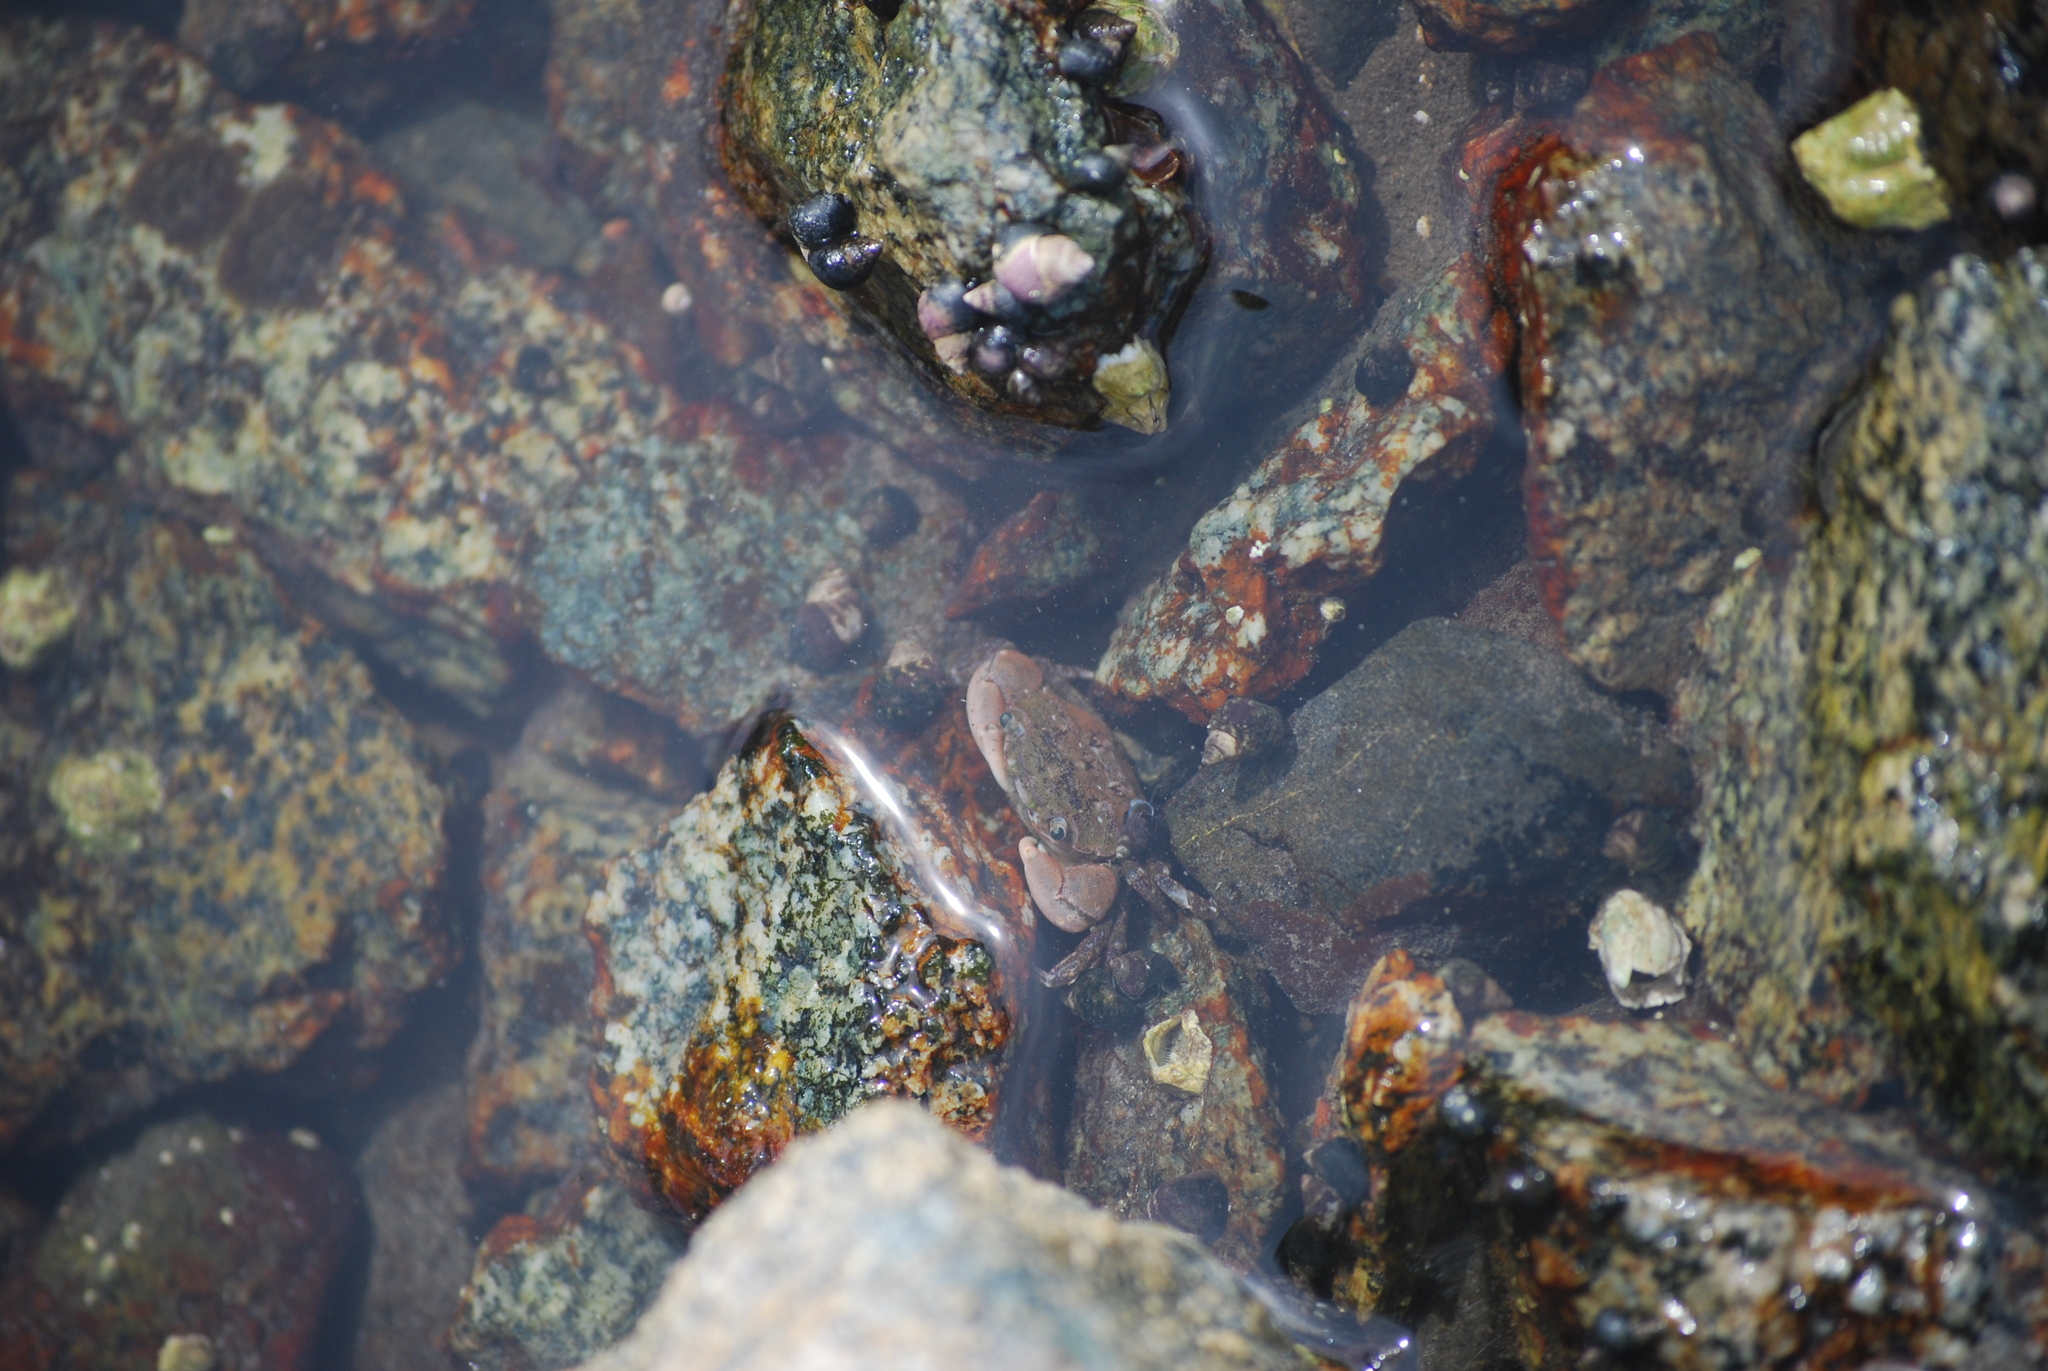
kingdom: Animalia
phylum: Arthropoda
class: Malacostraca
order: Decapoda
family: Varunidae
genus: Hemigrapsus
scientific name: Hemigrapsus oregonensis
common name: Yellow shore crab
